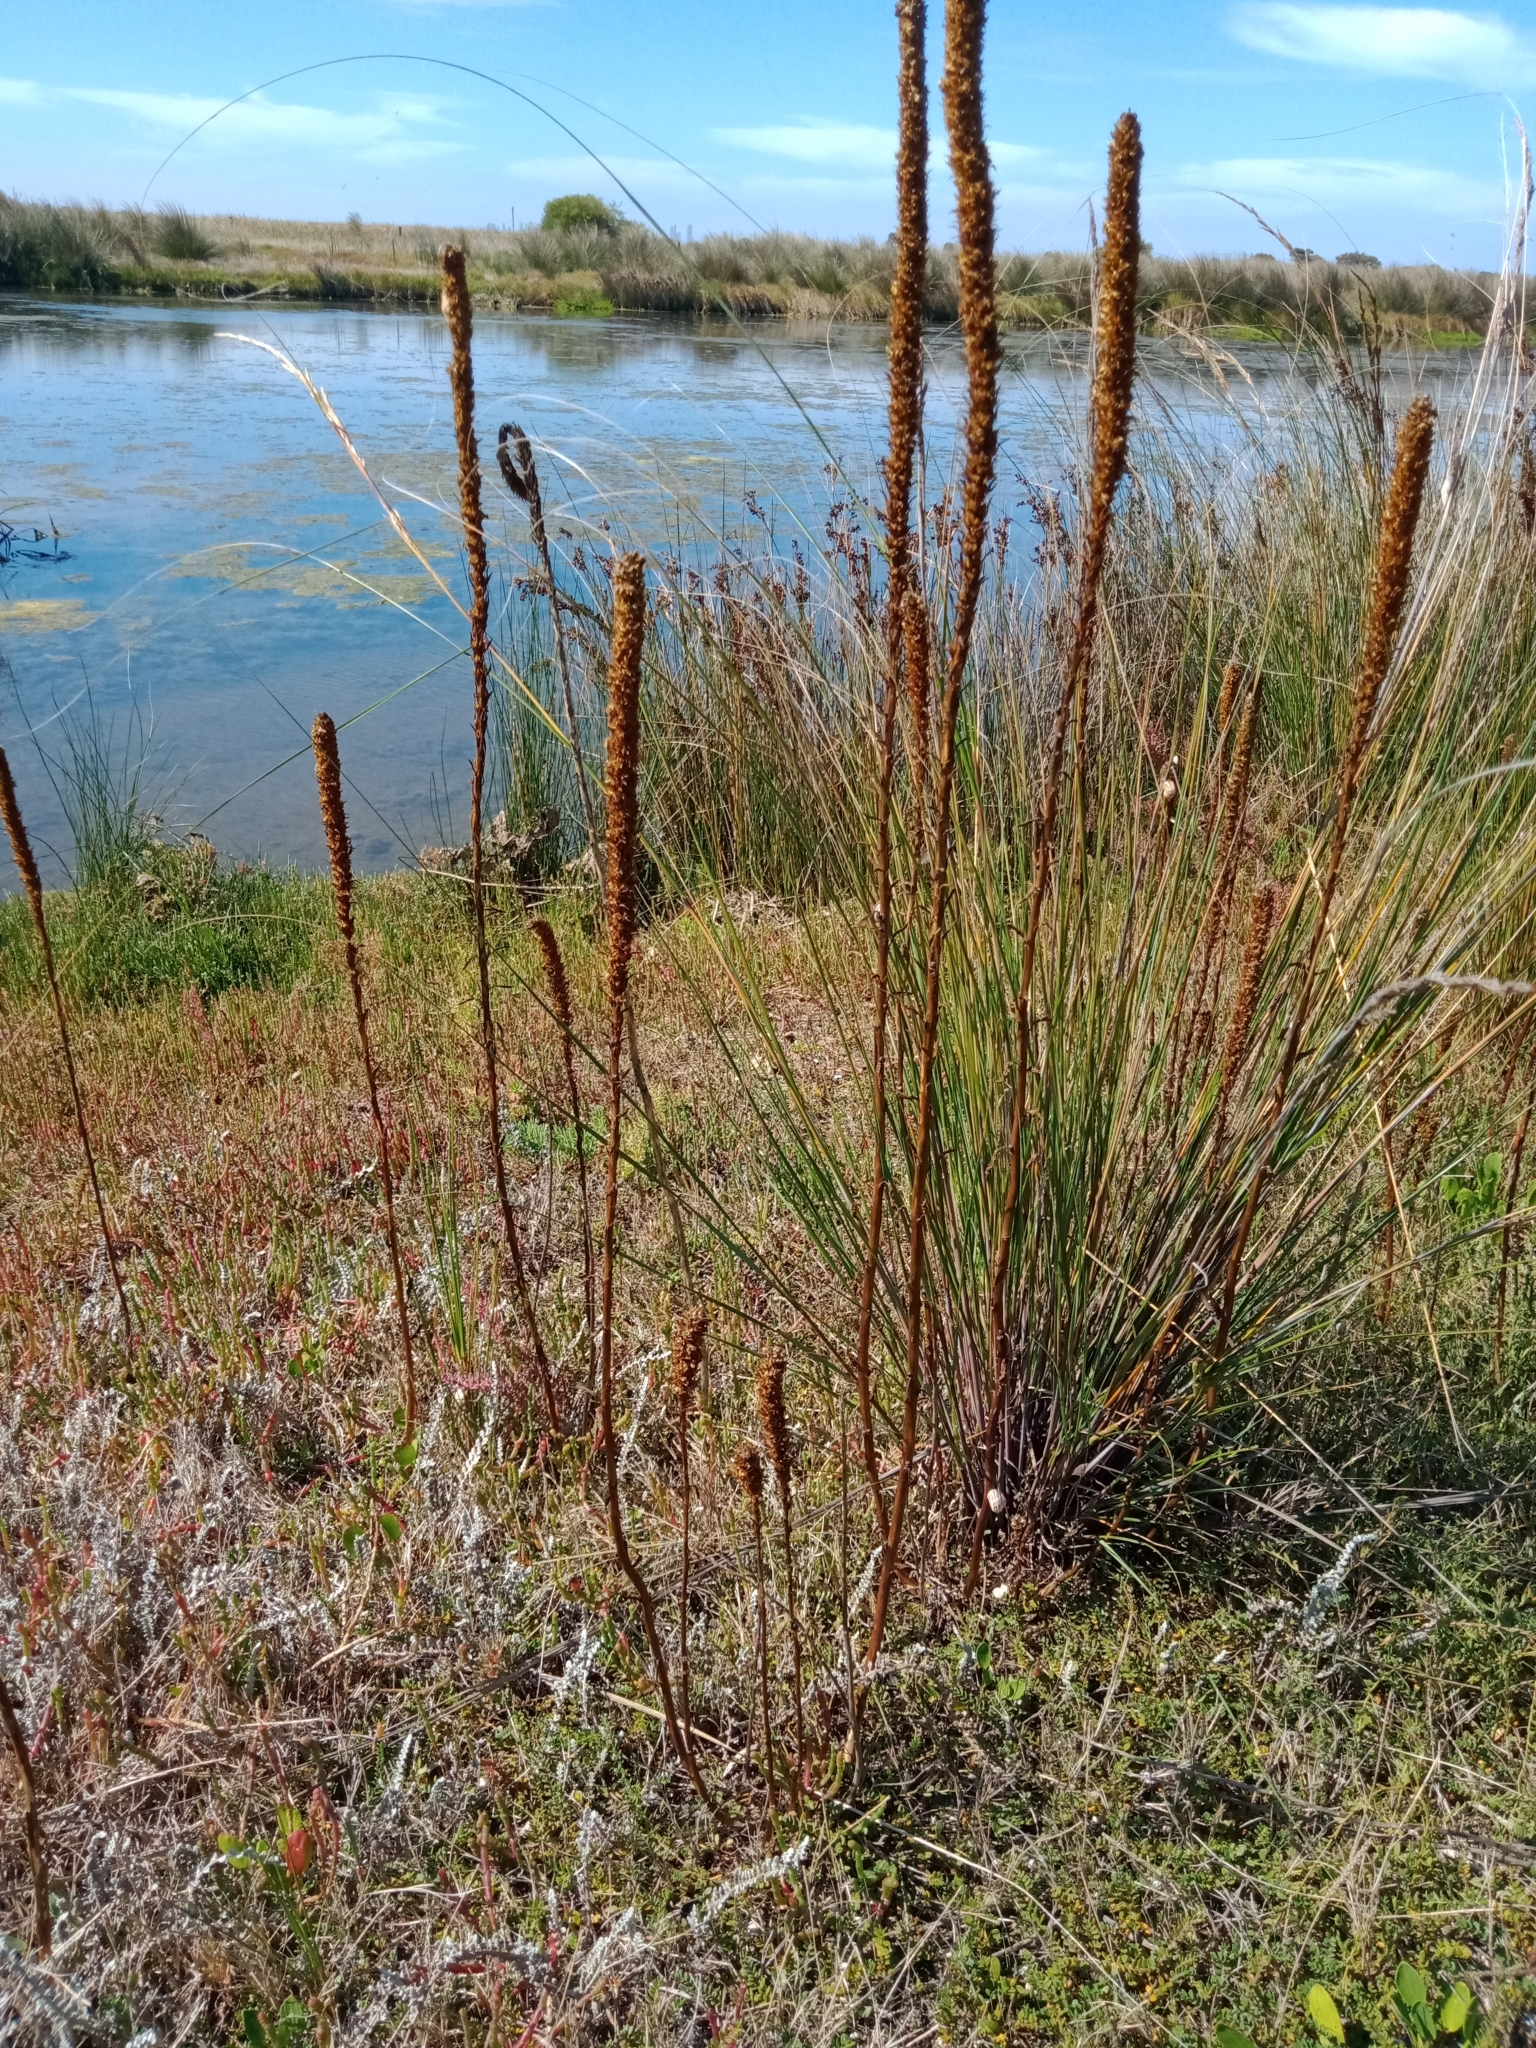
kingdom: Plantae
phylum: Tracheophyta
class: Magnoliopsida
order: Malvales
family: Malvaceae
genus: Lawrencia
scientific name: Lawrencia spicata
